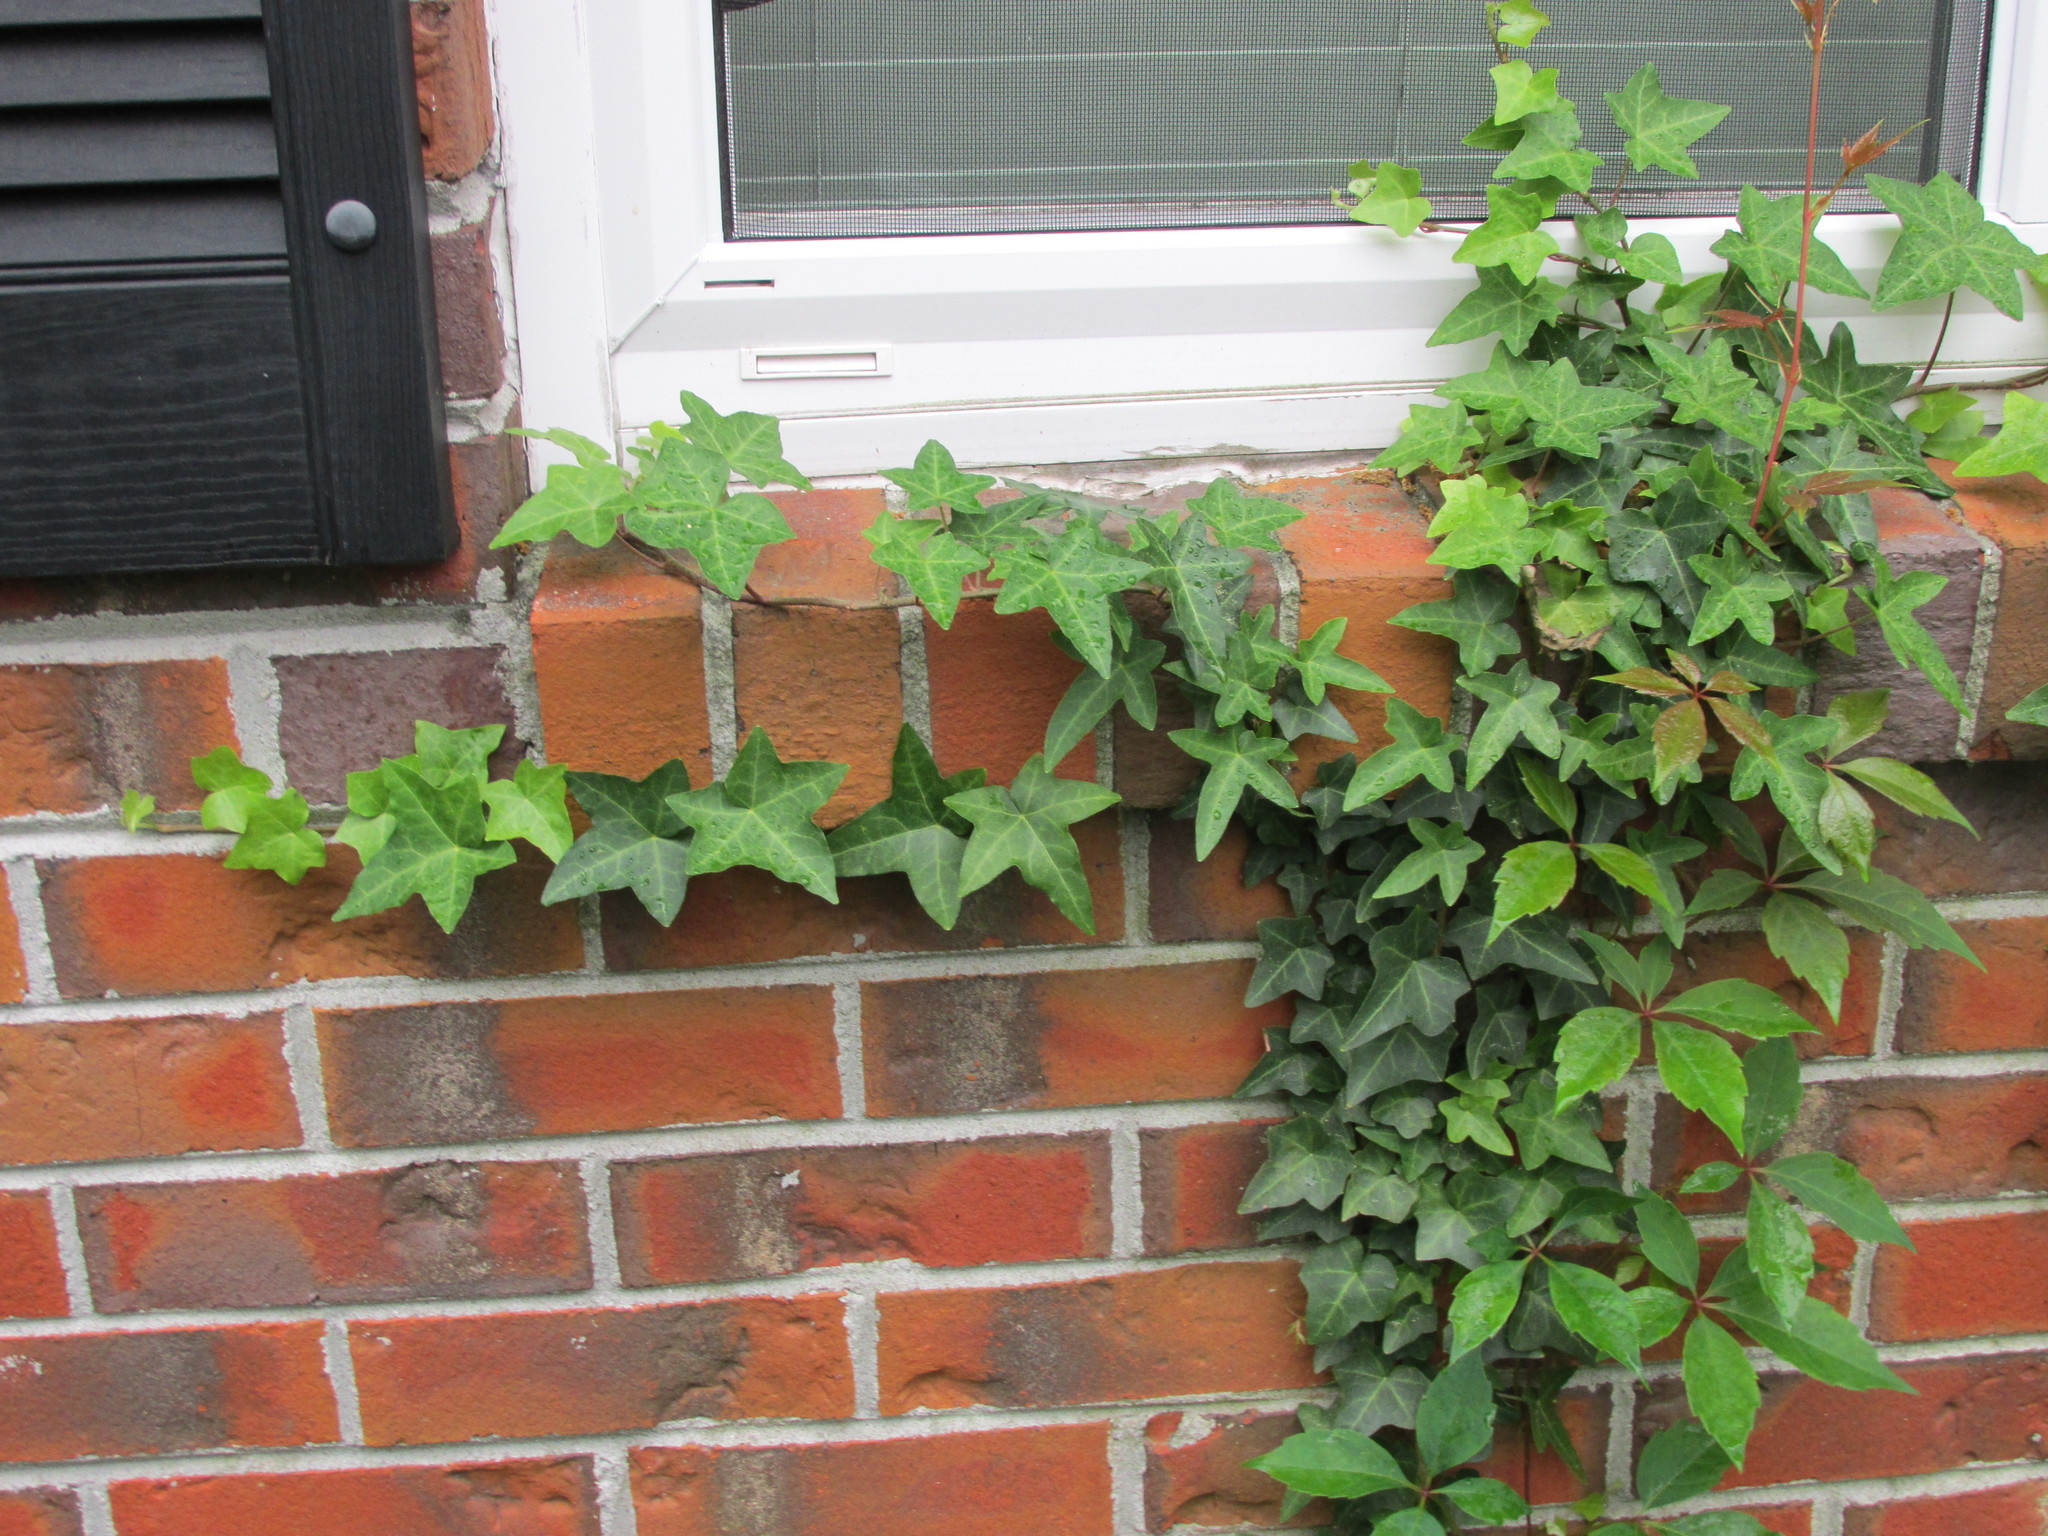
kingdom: Plantae
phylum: Tracheophyta
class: Magnoliopsida
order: Apiales
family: Araliaceae
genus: Hedera
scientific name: Hedera helix
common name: Ivy
